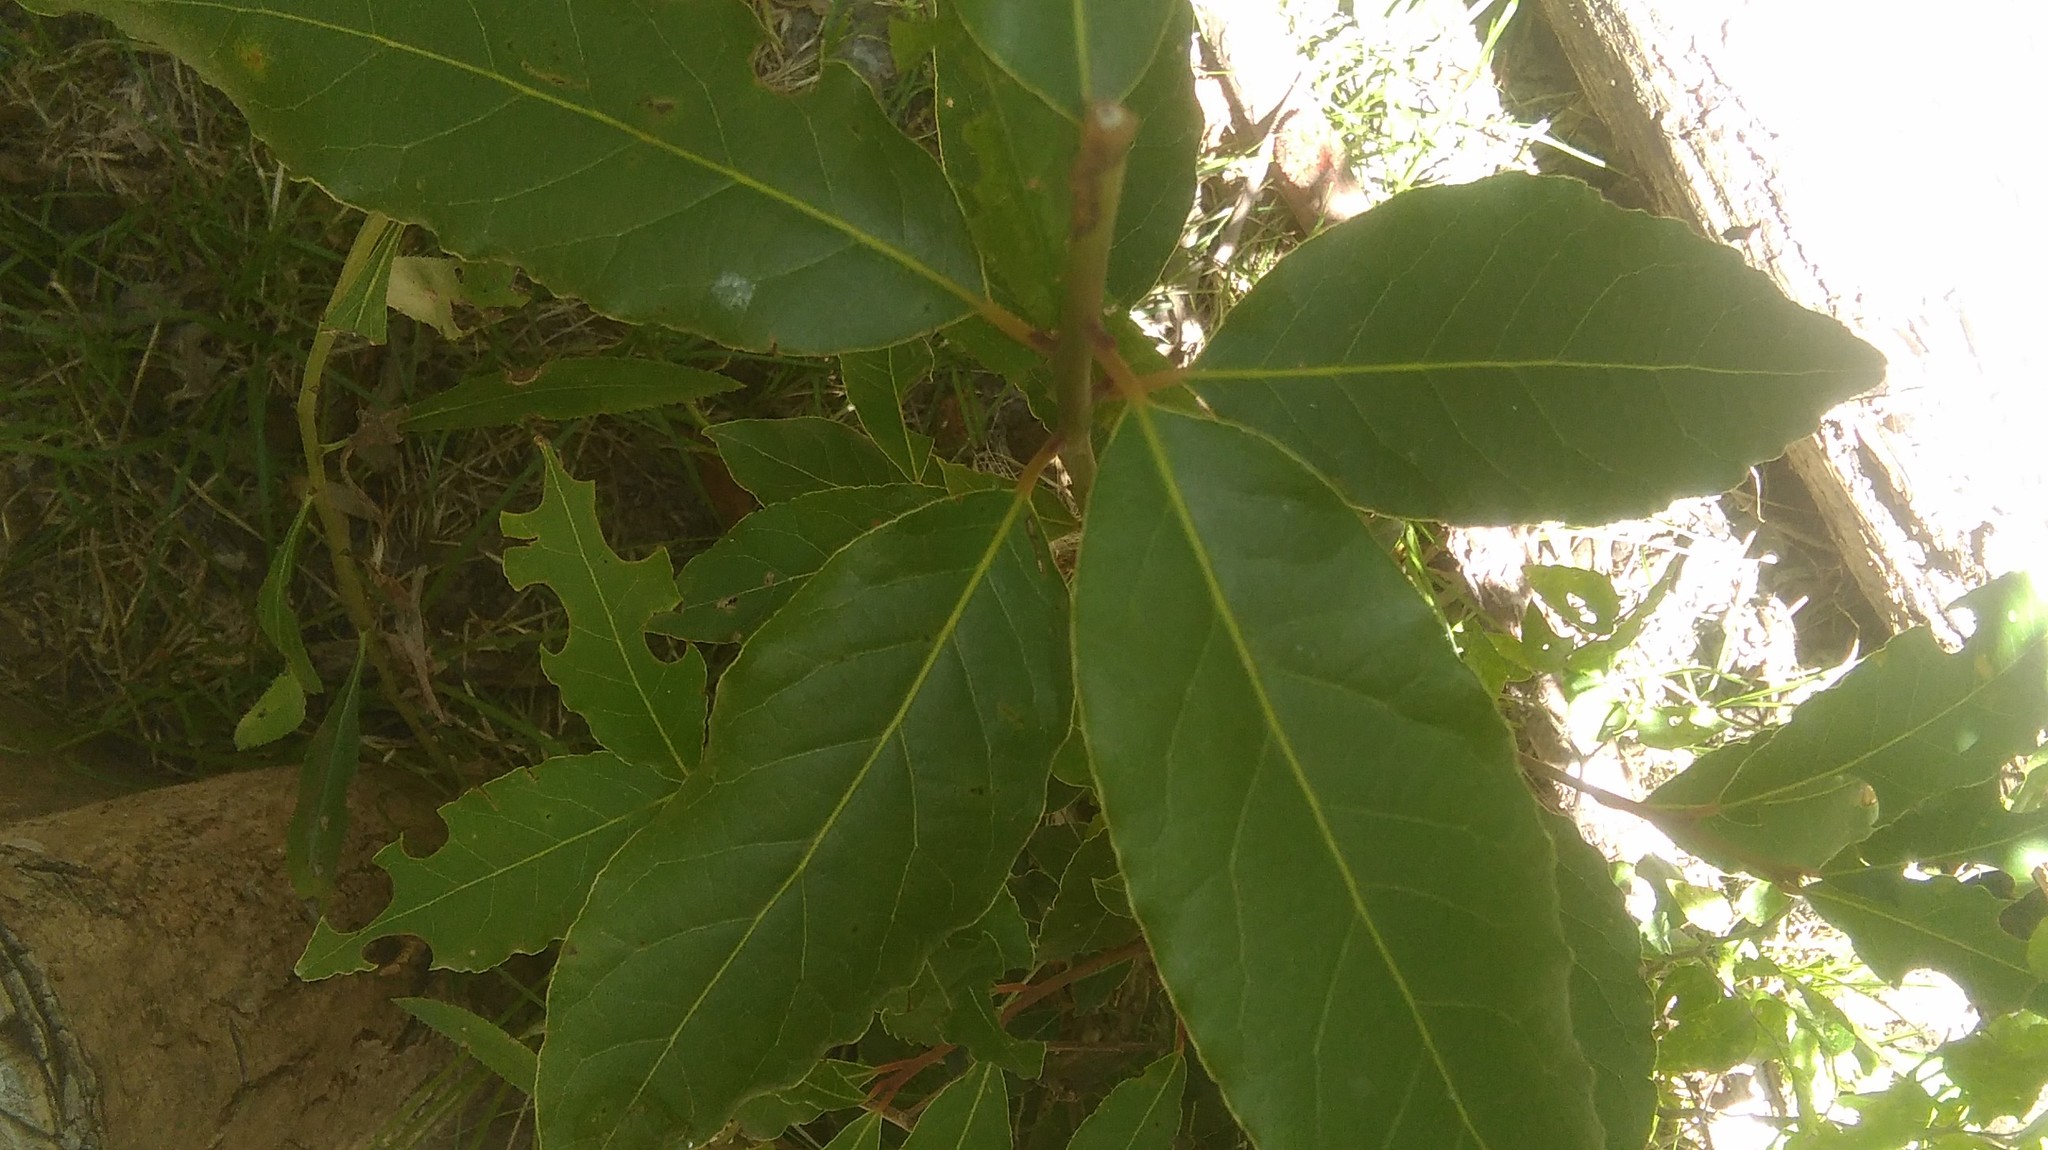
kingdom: Plantae
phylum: Tracheophyta
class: Magnoliopsida
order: Laurales
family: Lauraceae
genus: Laurus
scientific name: Laurus nobilis
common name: Bay
